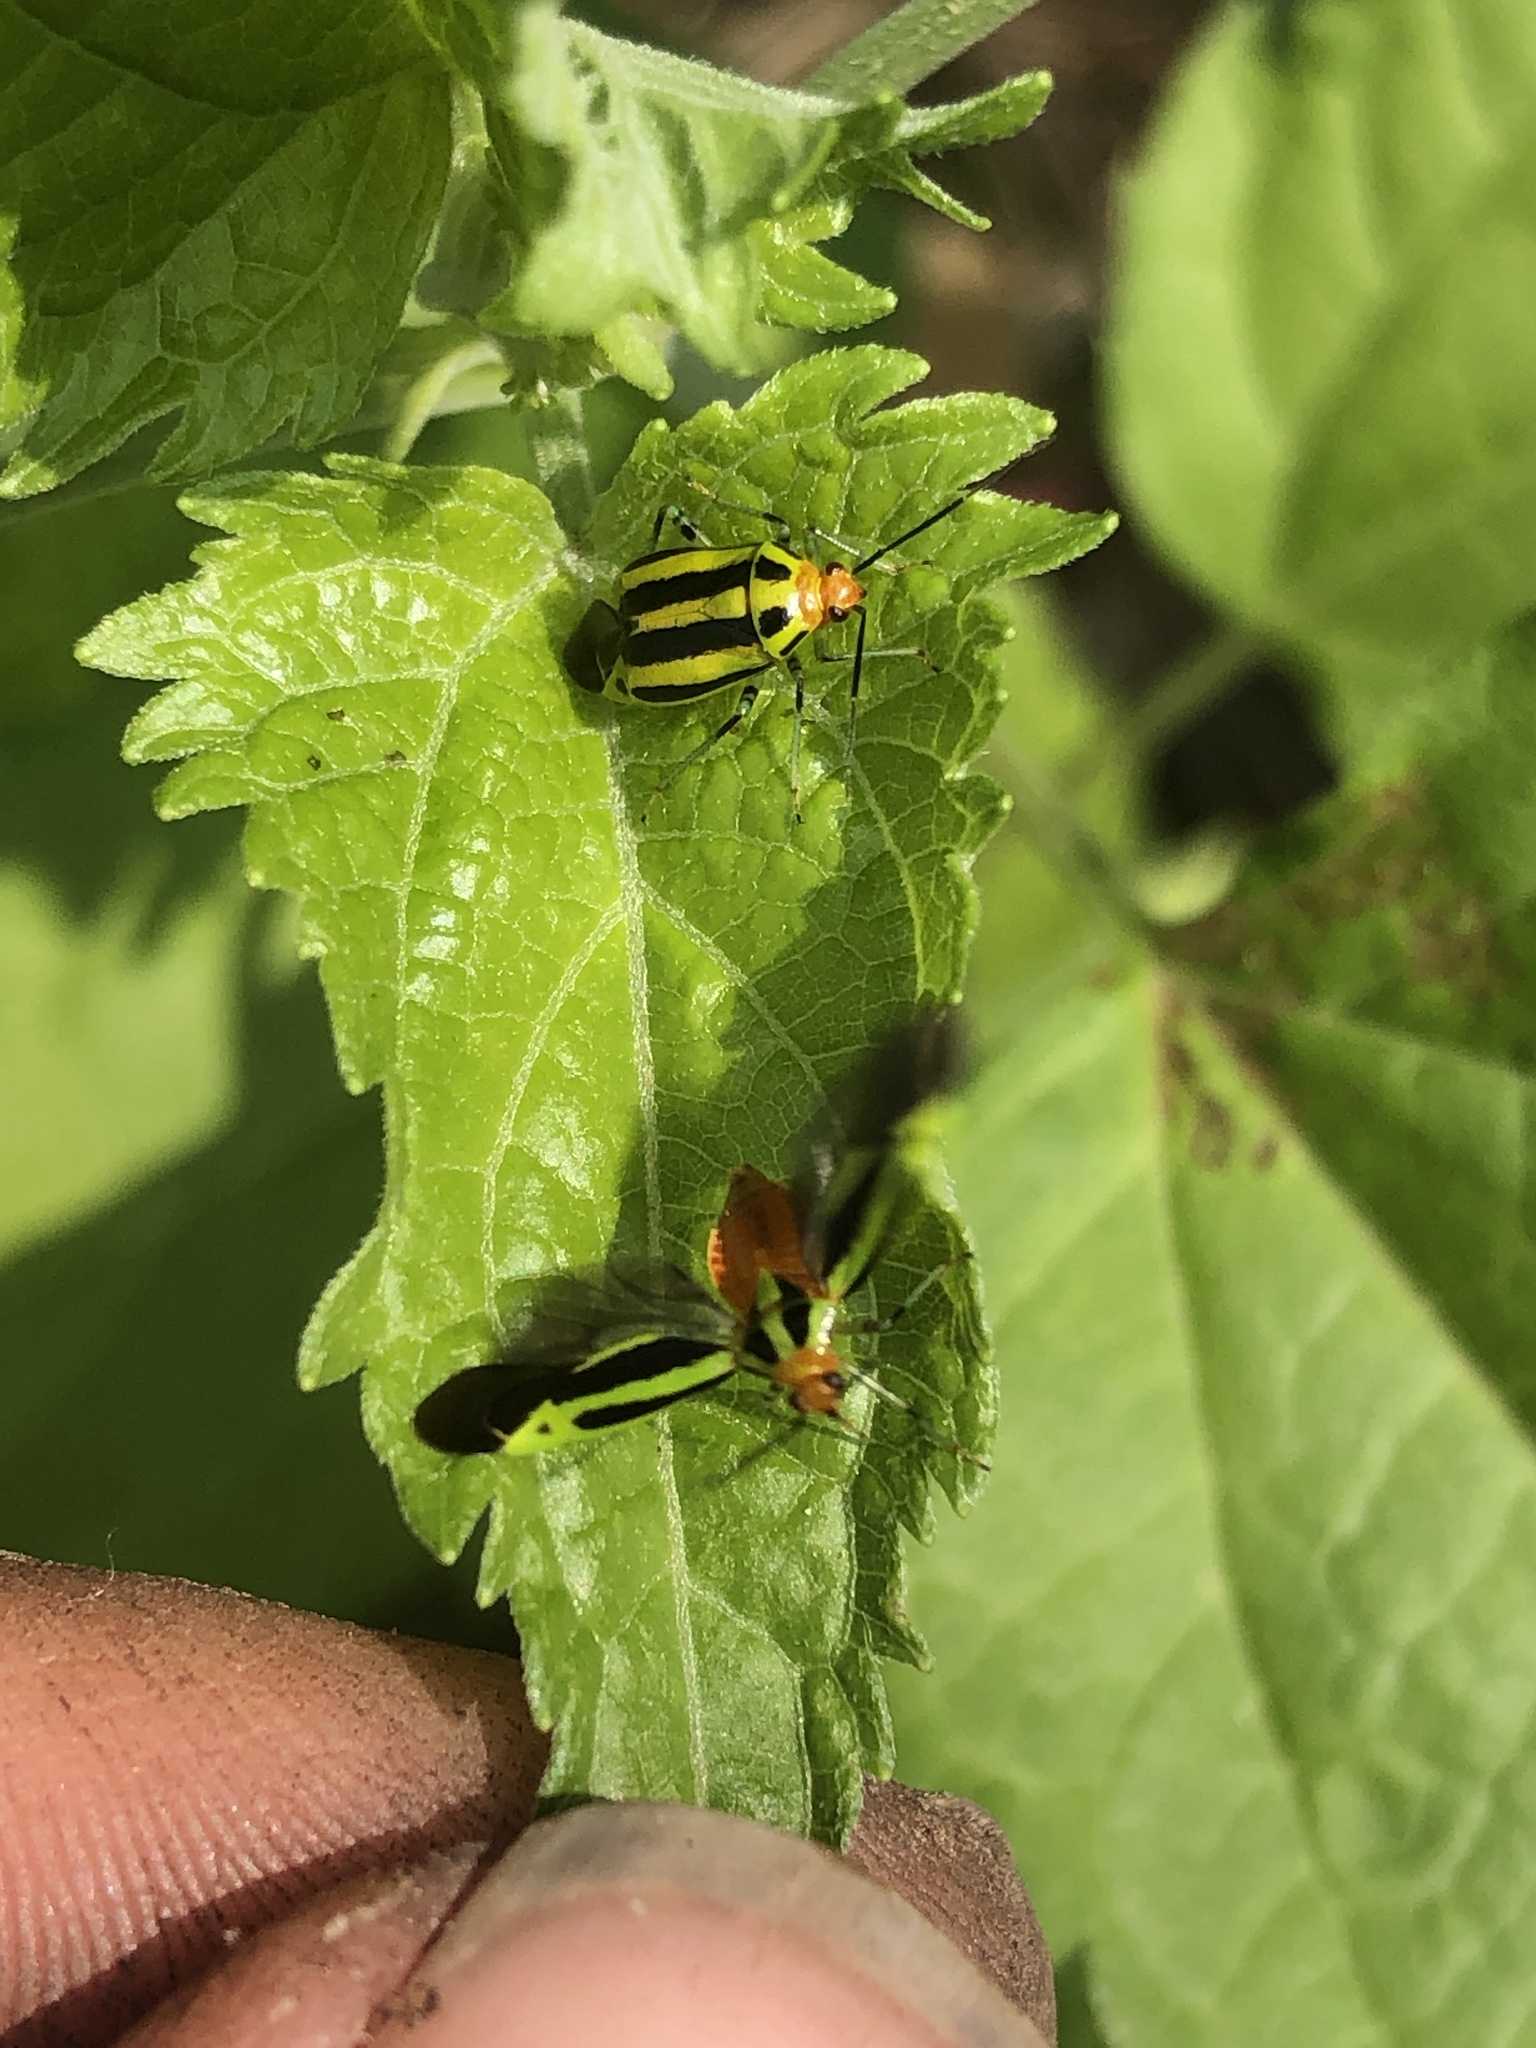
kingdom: Animalia
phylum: Arthropoda
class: Insecta
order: Hemiptera
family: Miridae
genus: Poecilocapsus
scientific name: Poecilocapsus lineatus
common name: Four-lined plant bug
